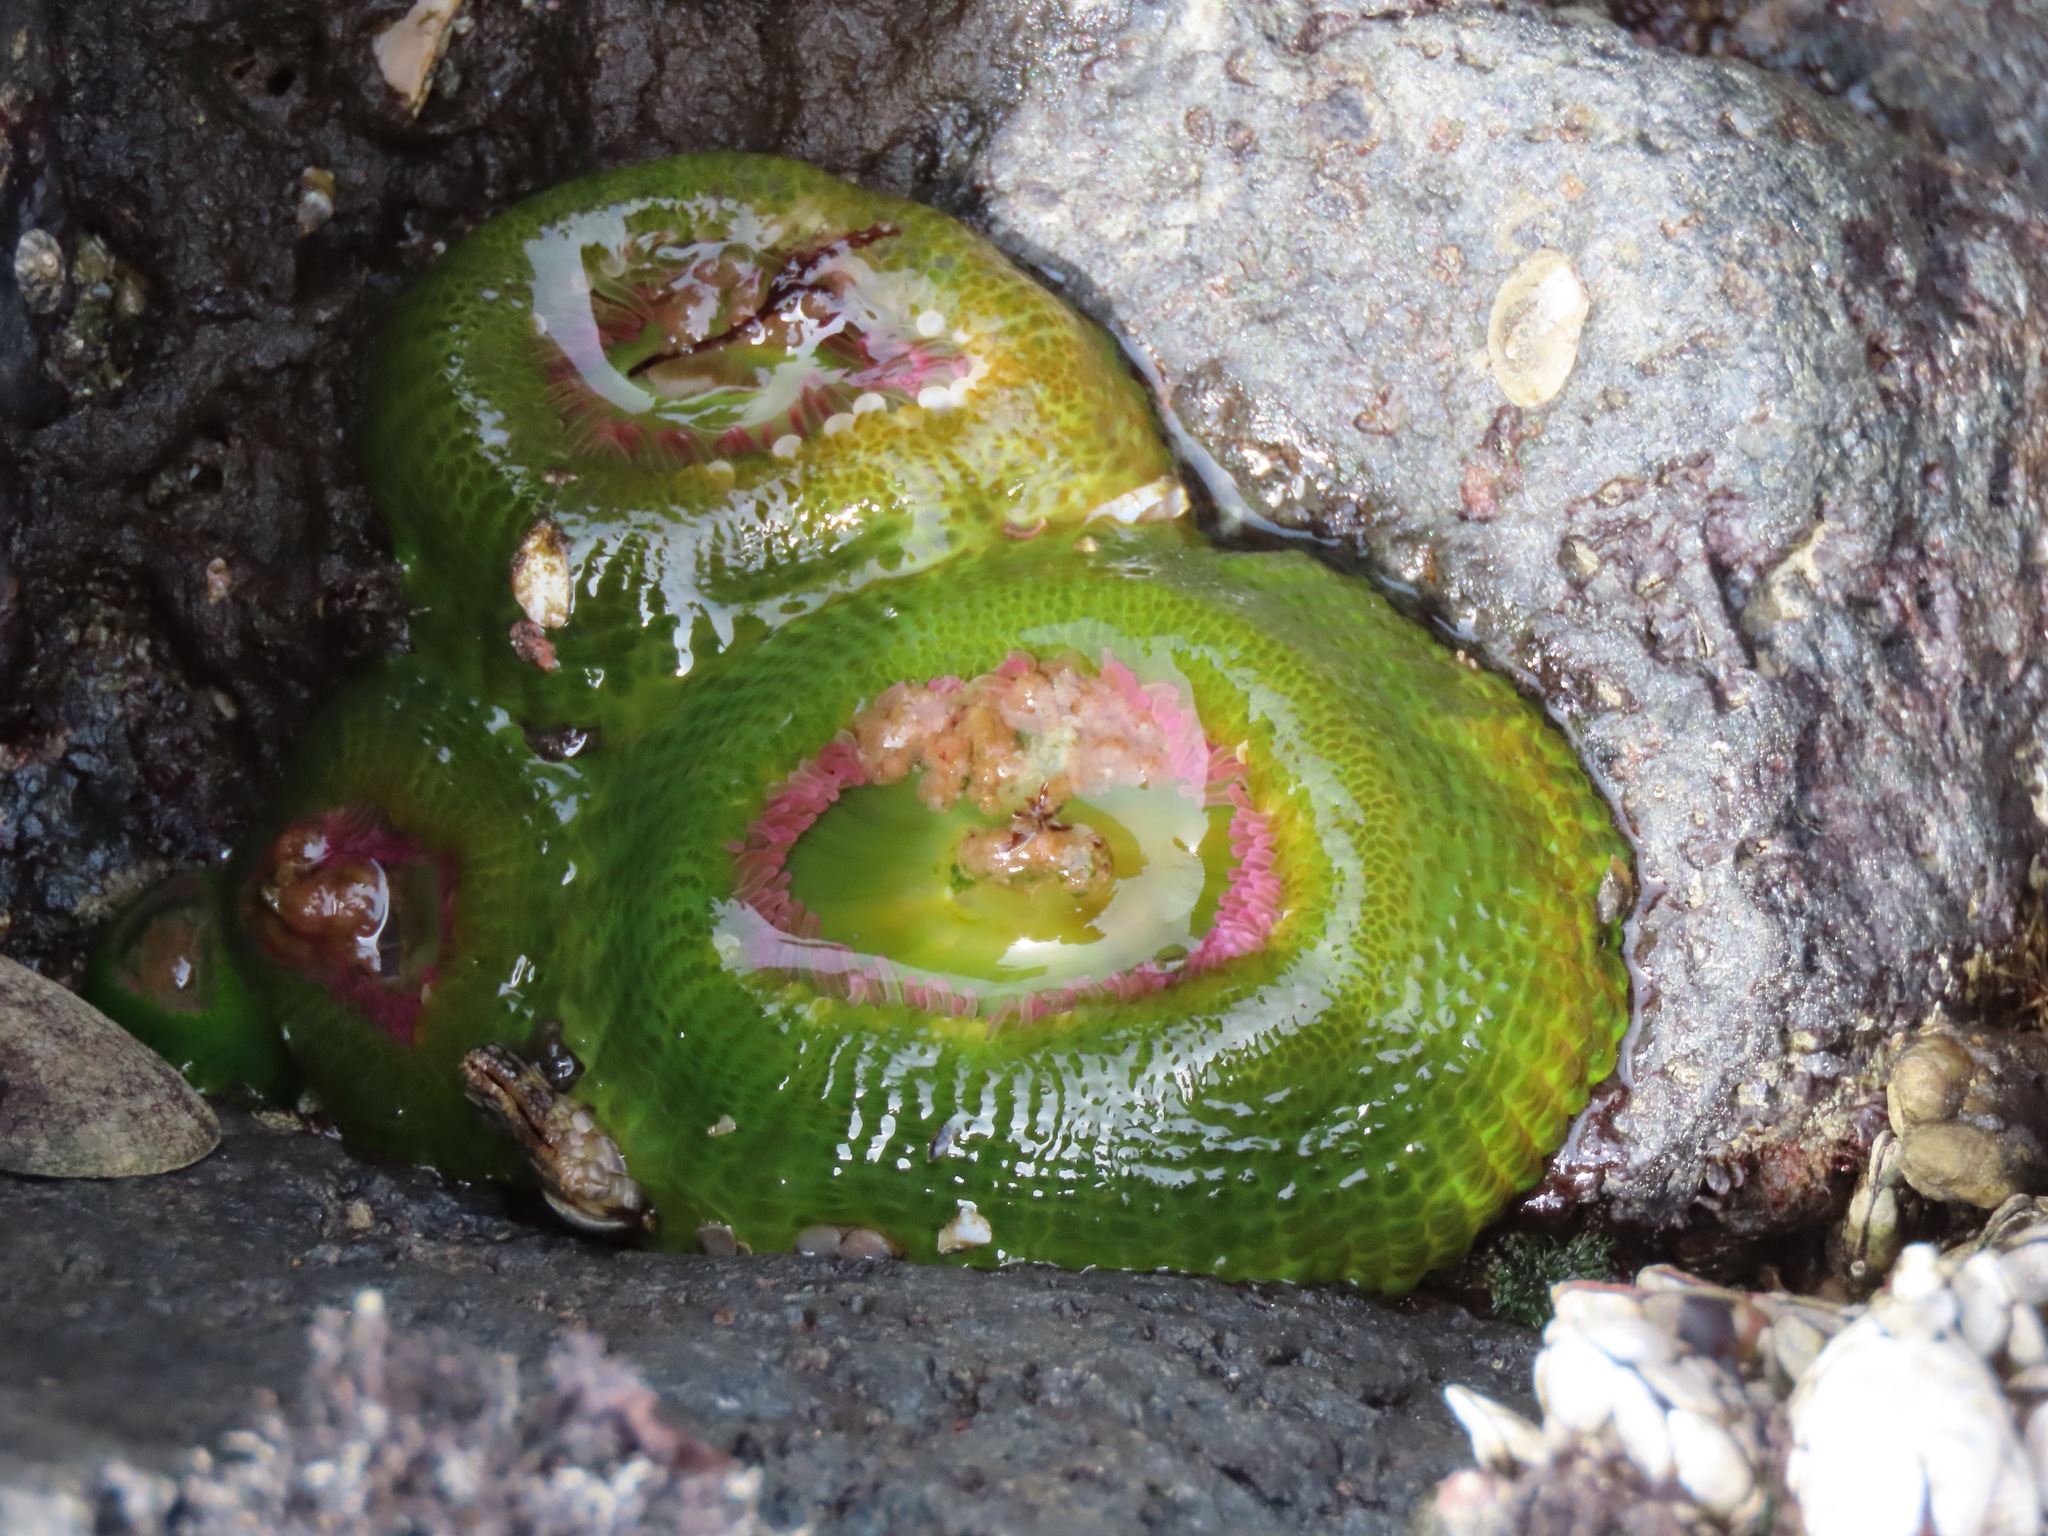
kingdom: Animalia
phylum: Cnidaria
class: Anthozoa
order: Actiniaria
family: Actiniidae
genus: Anthopleura
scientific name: Anthopleura elegantissima
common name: Clonal anemone
